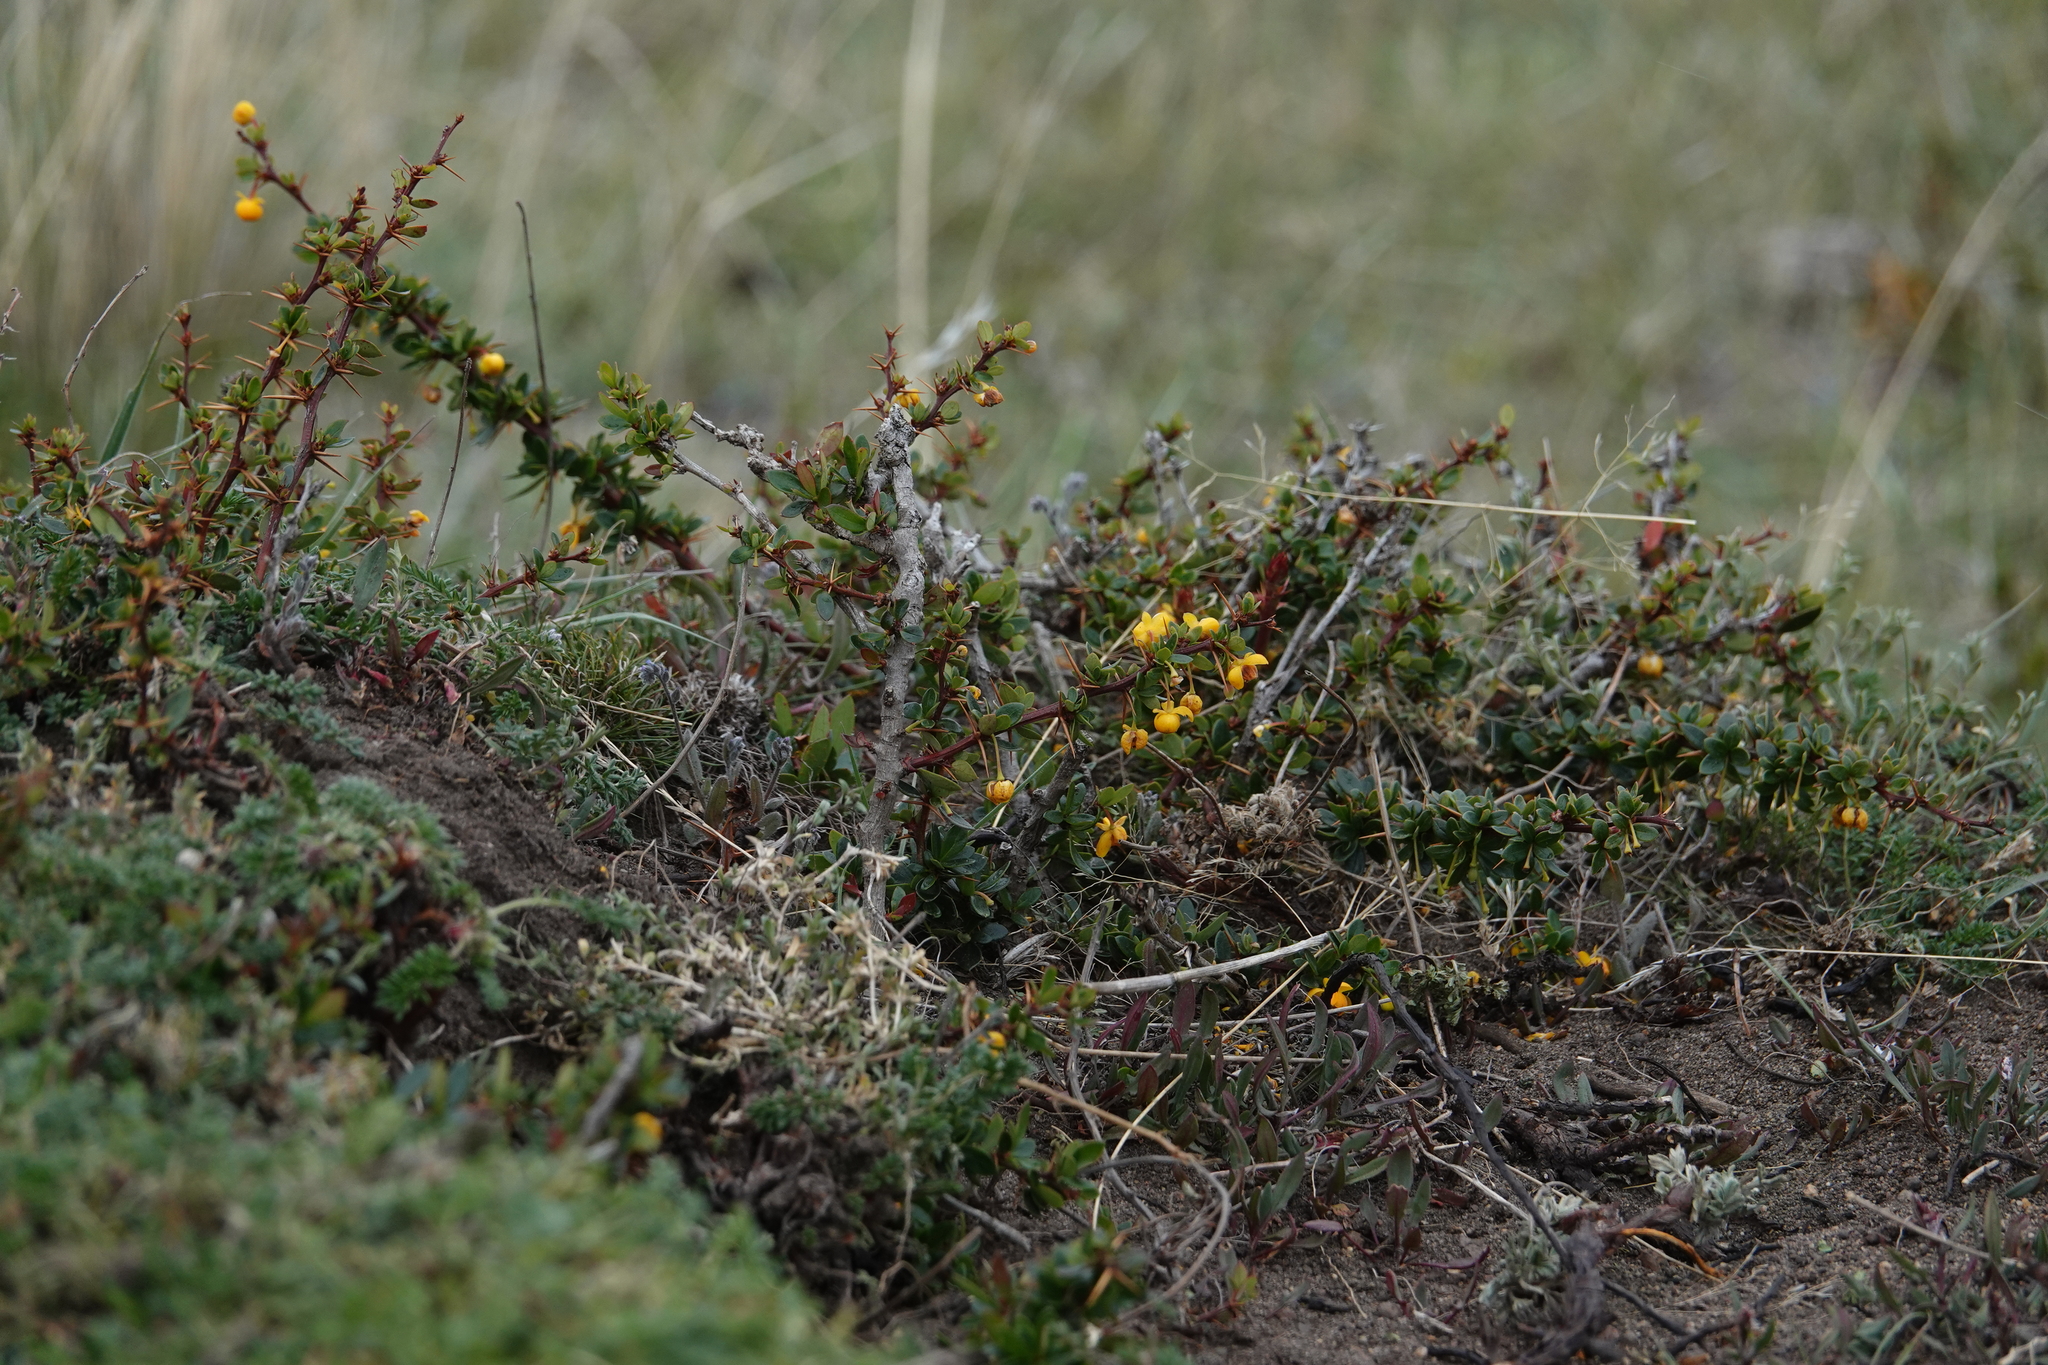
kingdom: Plantae
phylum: Tracheophyta
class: Magnoliopsida
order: Ranunculales
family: Berberidaceae
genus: Berberis
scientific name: Berberis microphylla
